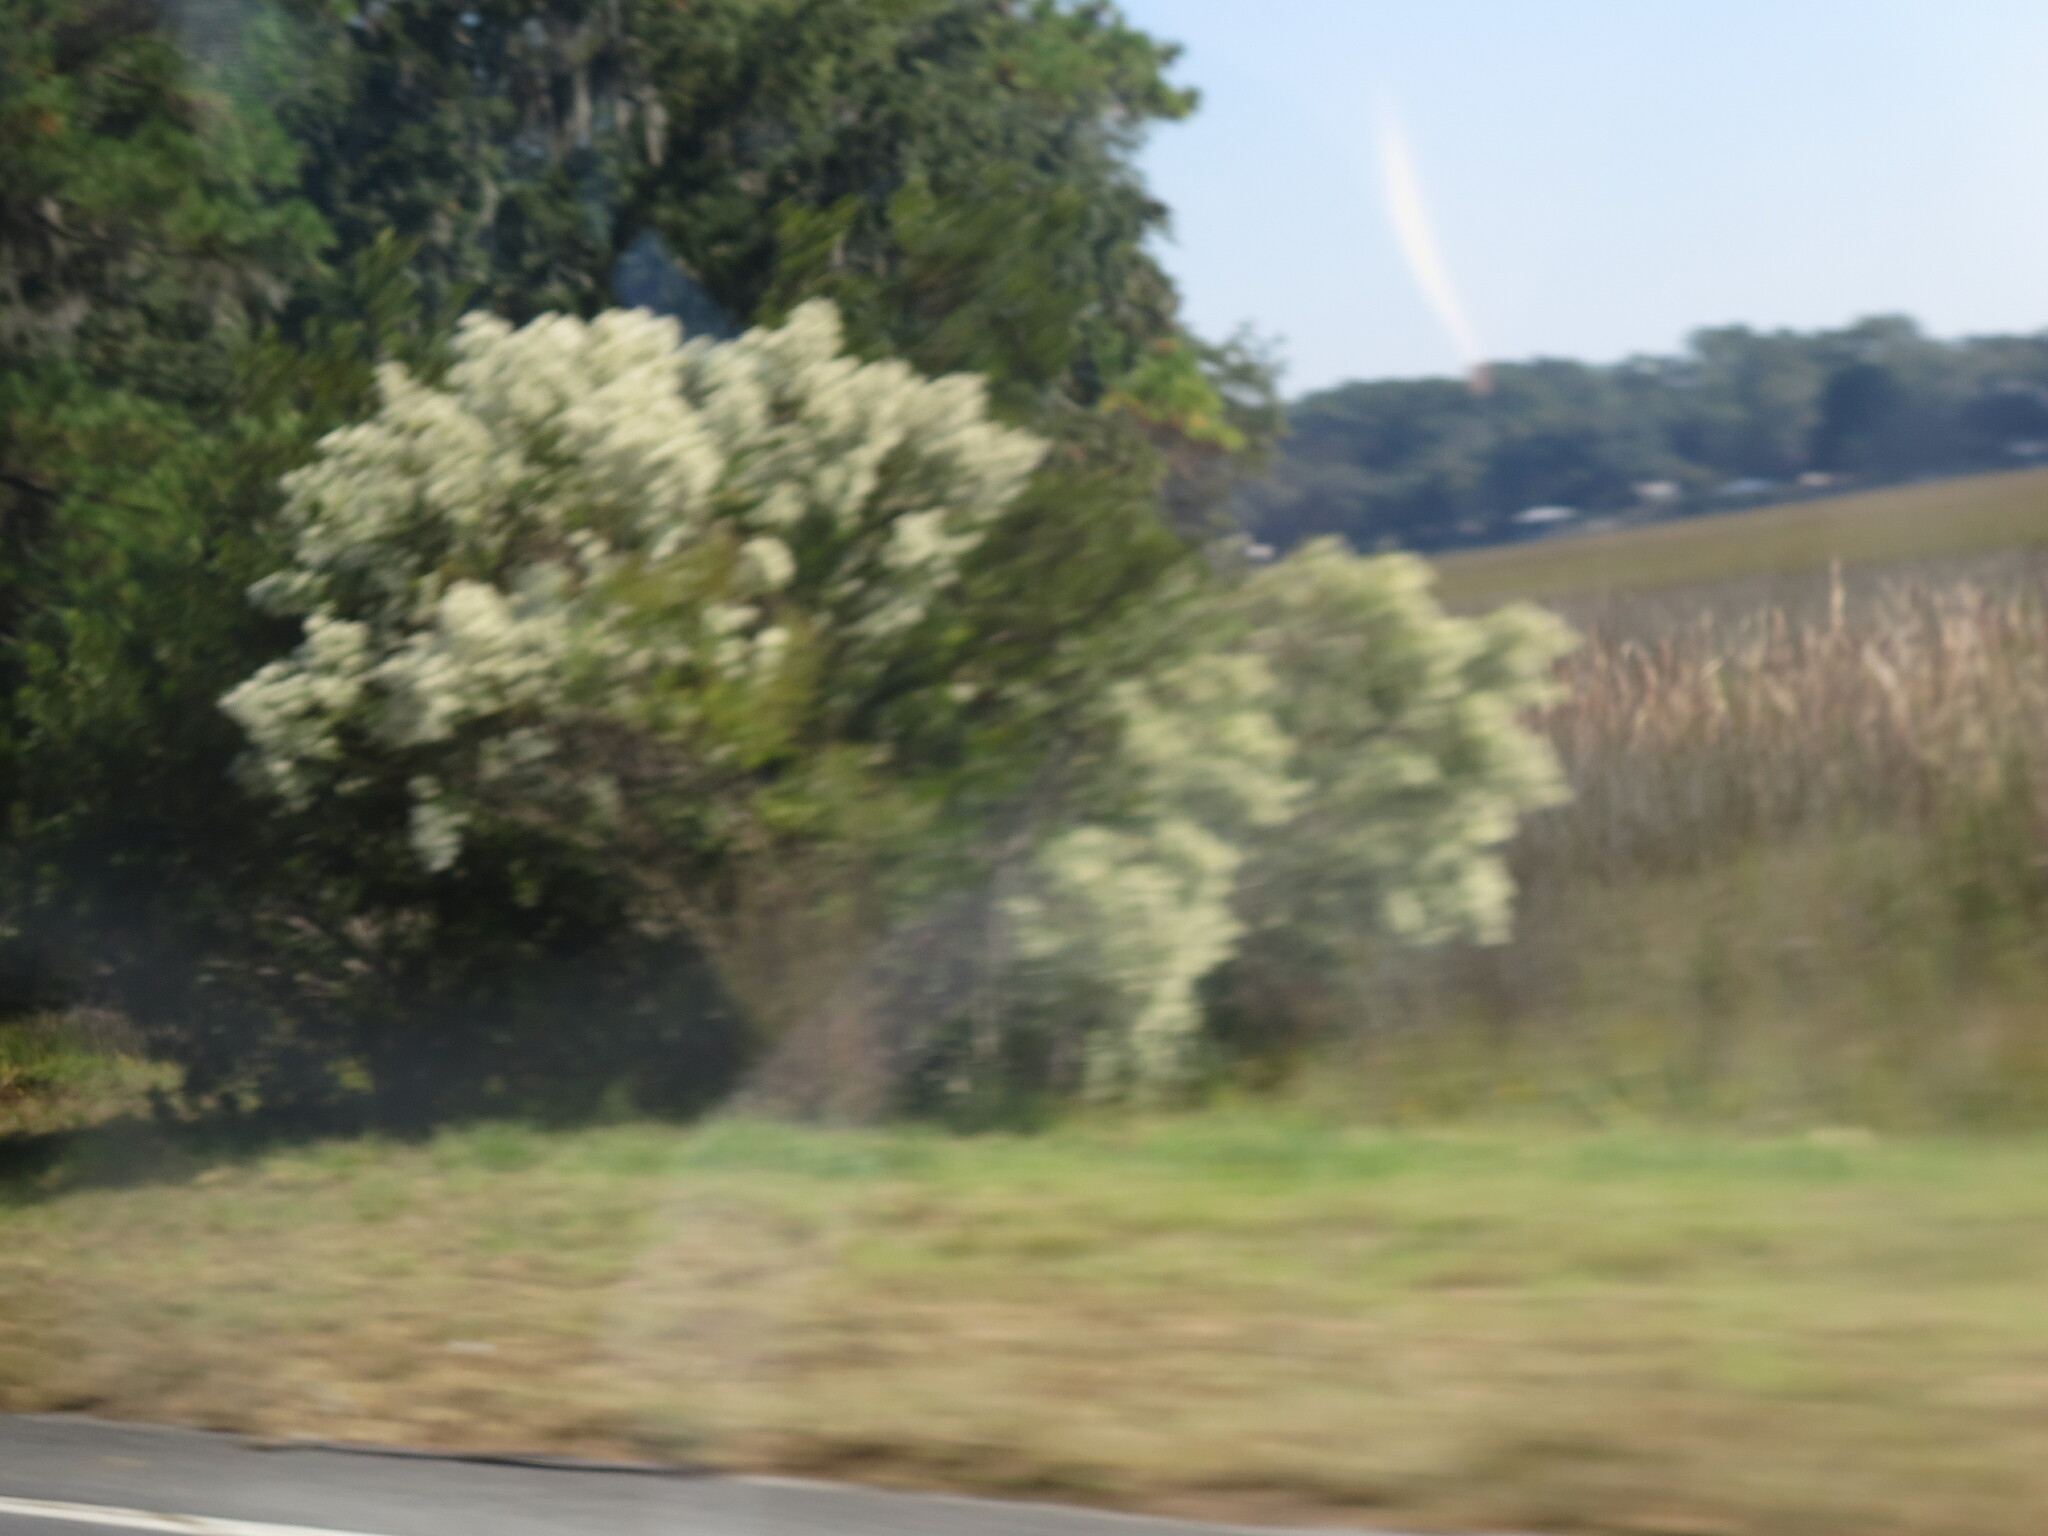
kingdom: Plantae
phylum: Tracheophyta
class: Magnoliopsida
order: Asterales
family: Asteraceae
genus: Baccharis
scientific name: Baccharis halimifolia
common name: Eastern baccharis
